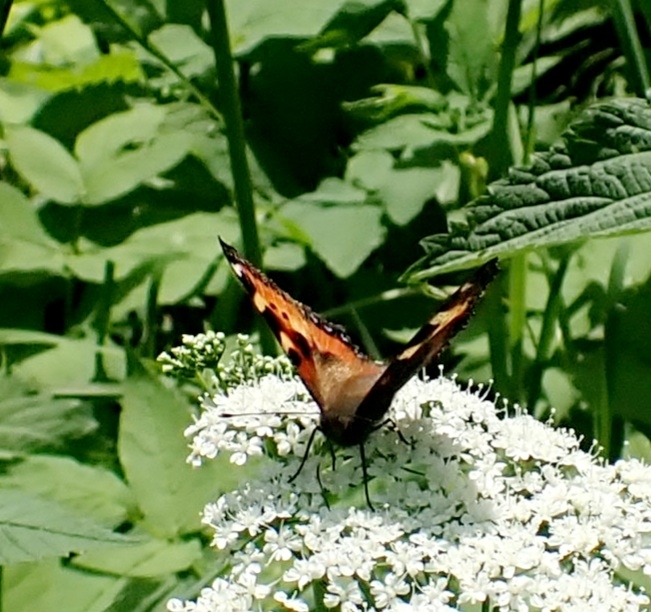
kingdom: Animalia
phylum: Arthropoda
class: Insecta
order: Lepidoptera
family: Nymphalidae
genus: Aglais
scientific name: Aglais urticae
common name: Small tortoiseshell
